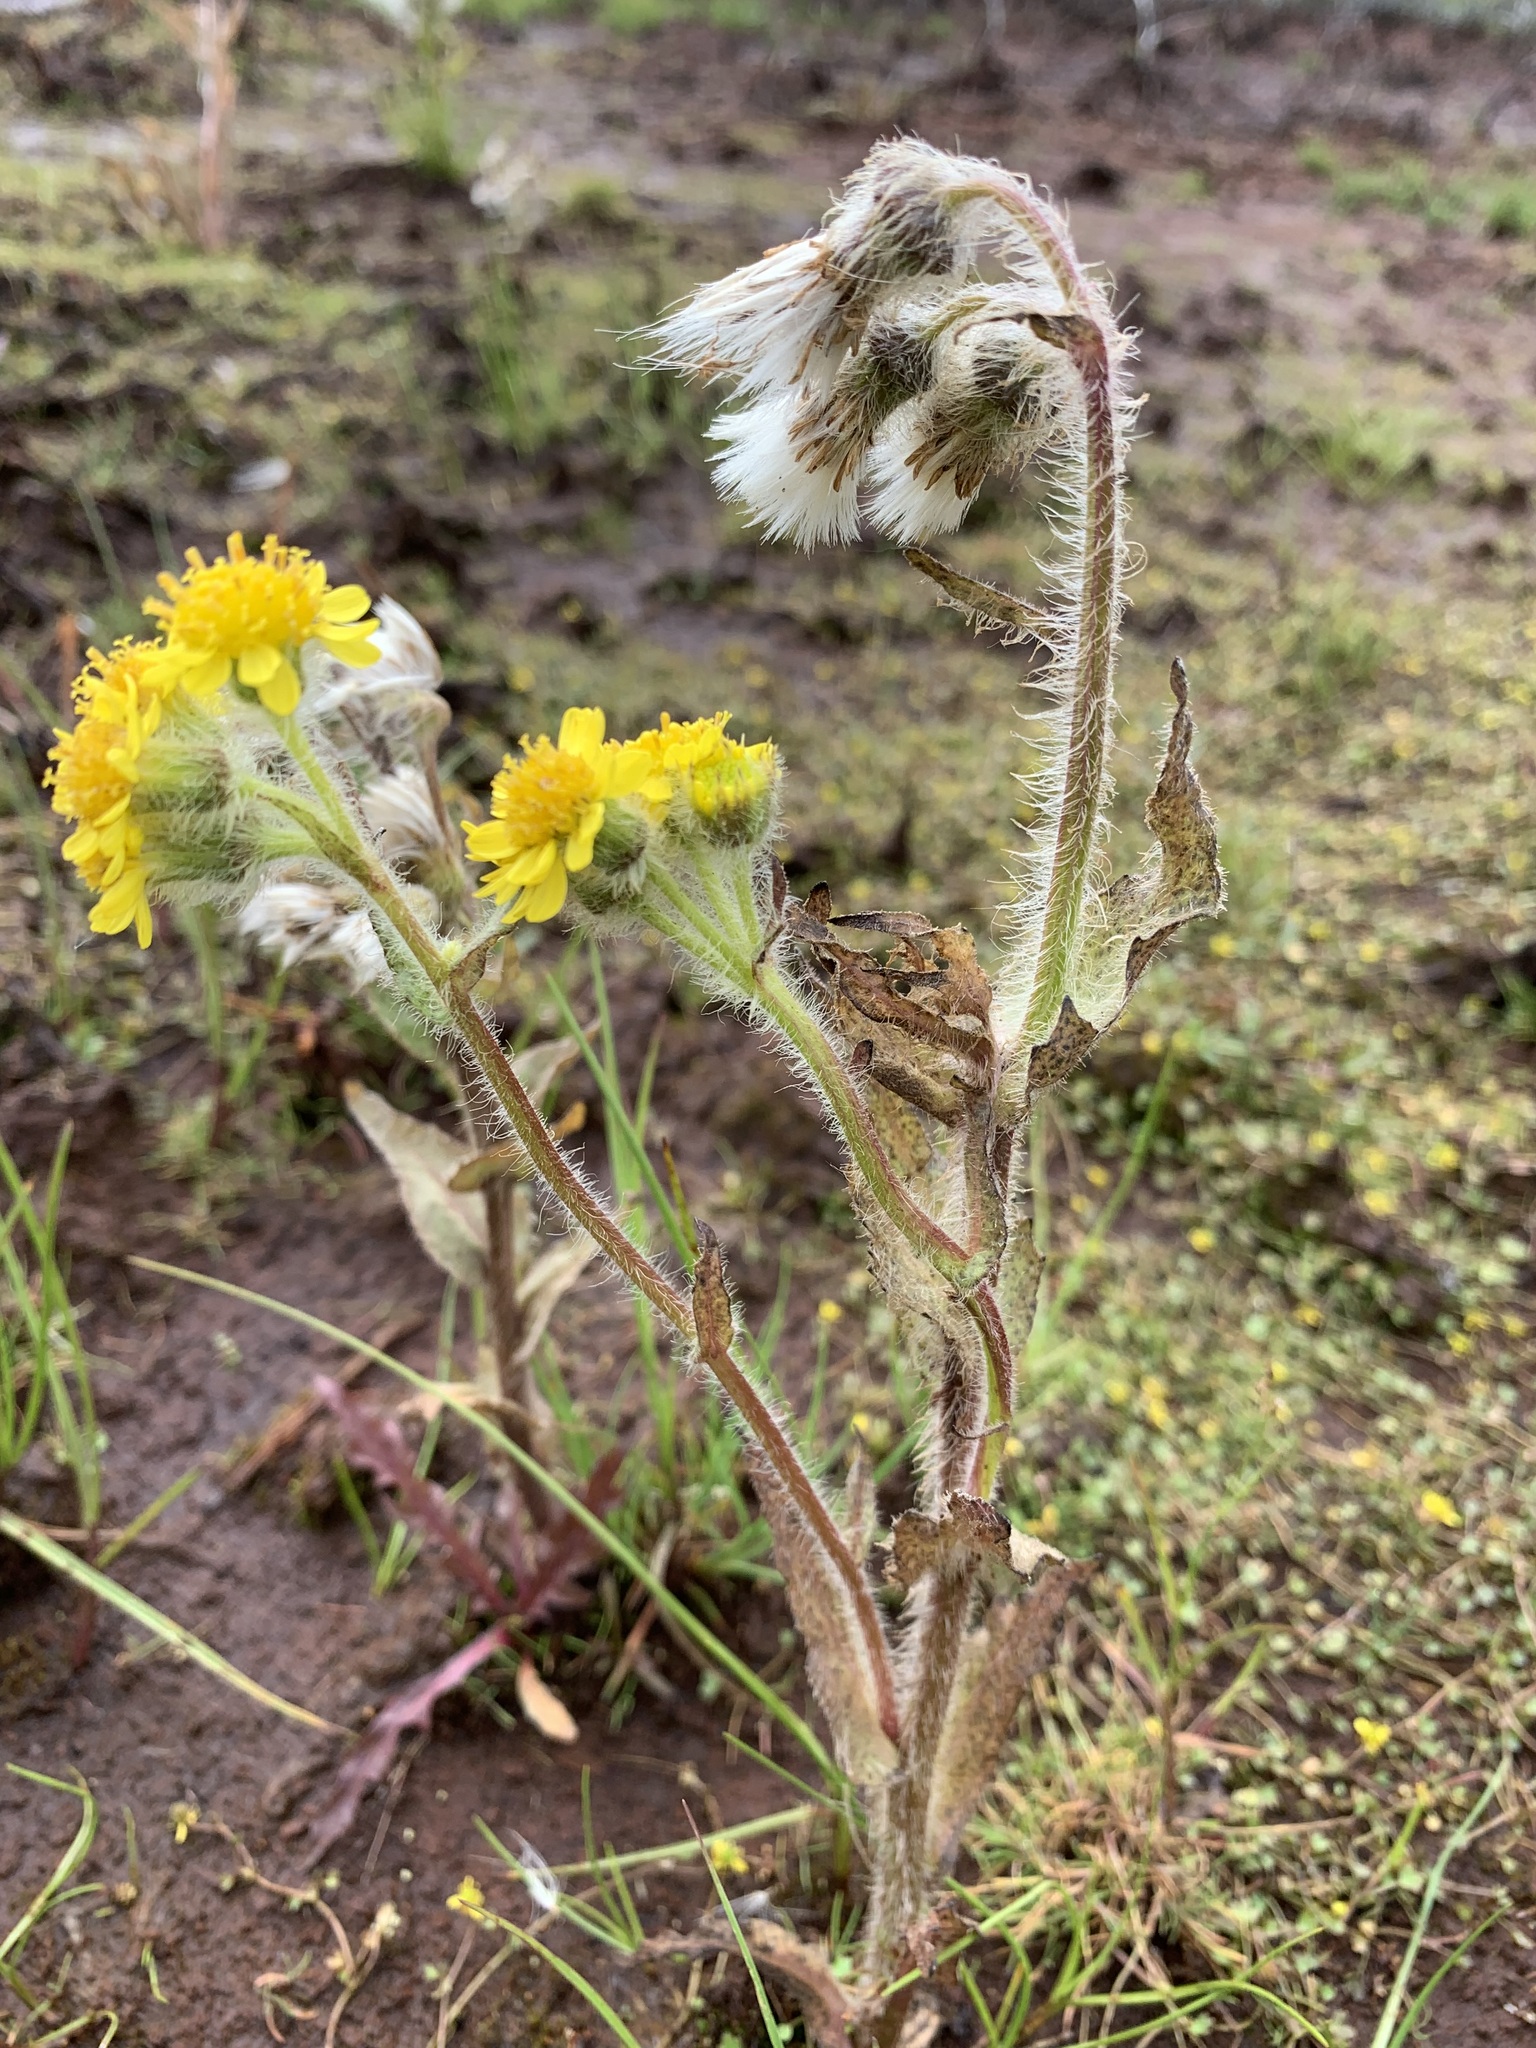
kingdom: Plantae
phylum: Tracheophyta
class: Magnoliopsida
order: Asterales
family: Asteraceae
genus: Tephroseris
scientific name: Tephroseris palustris
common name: Marsh fleawort
